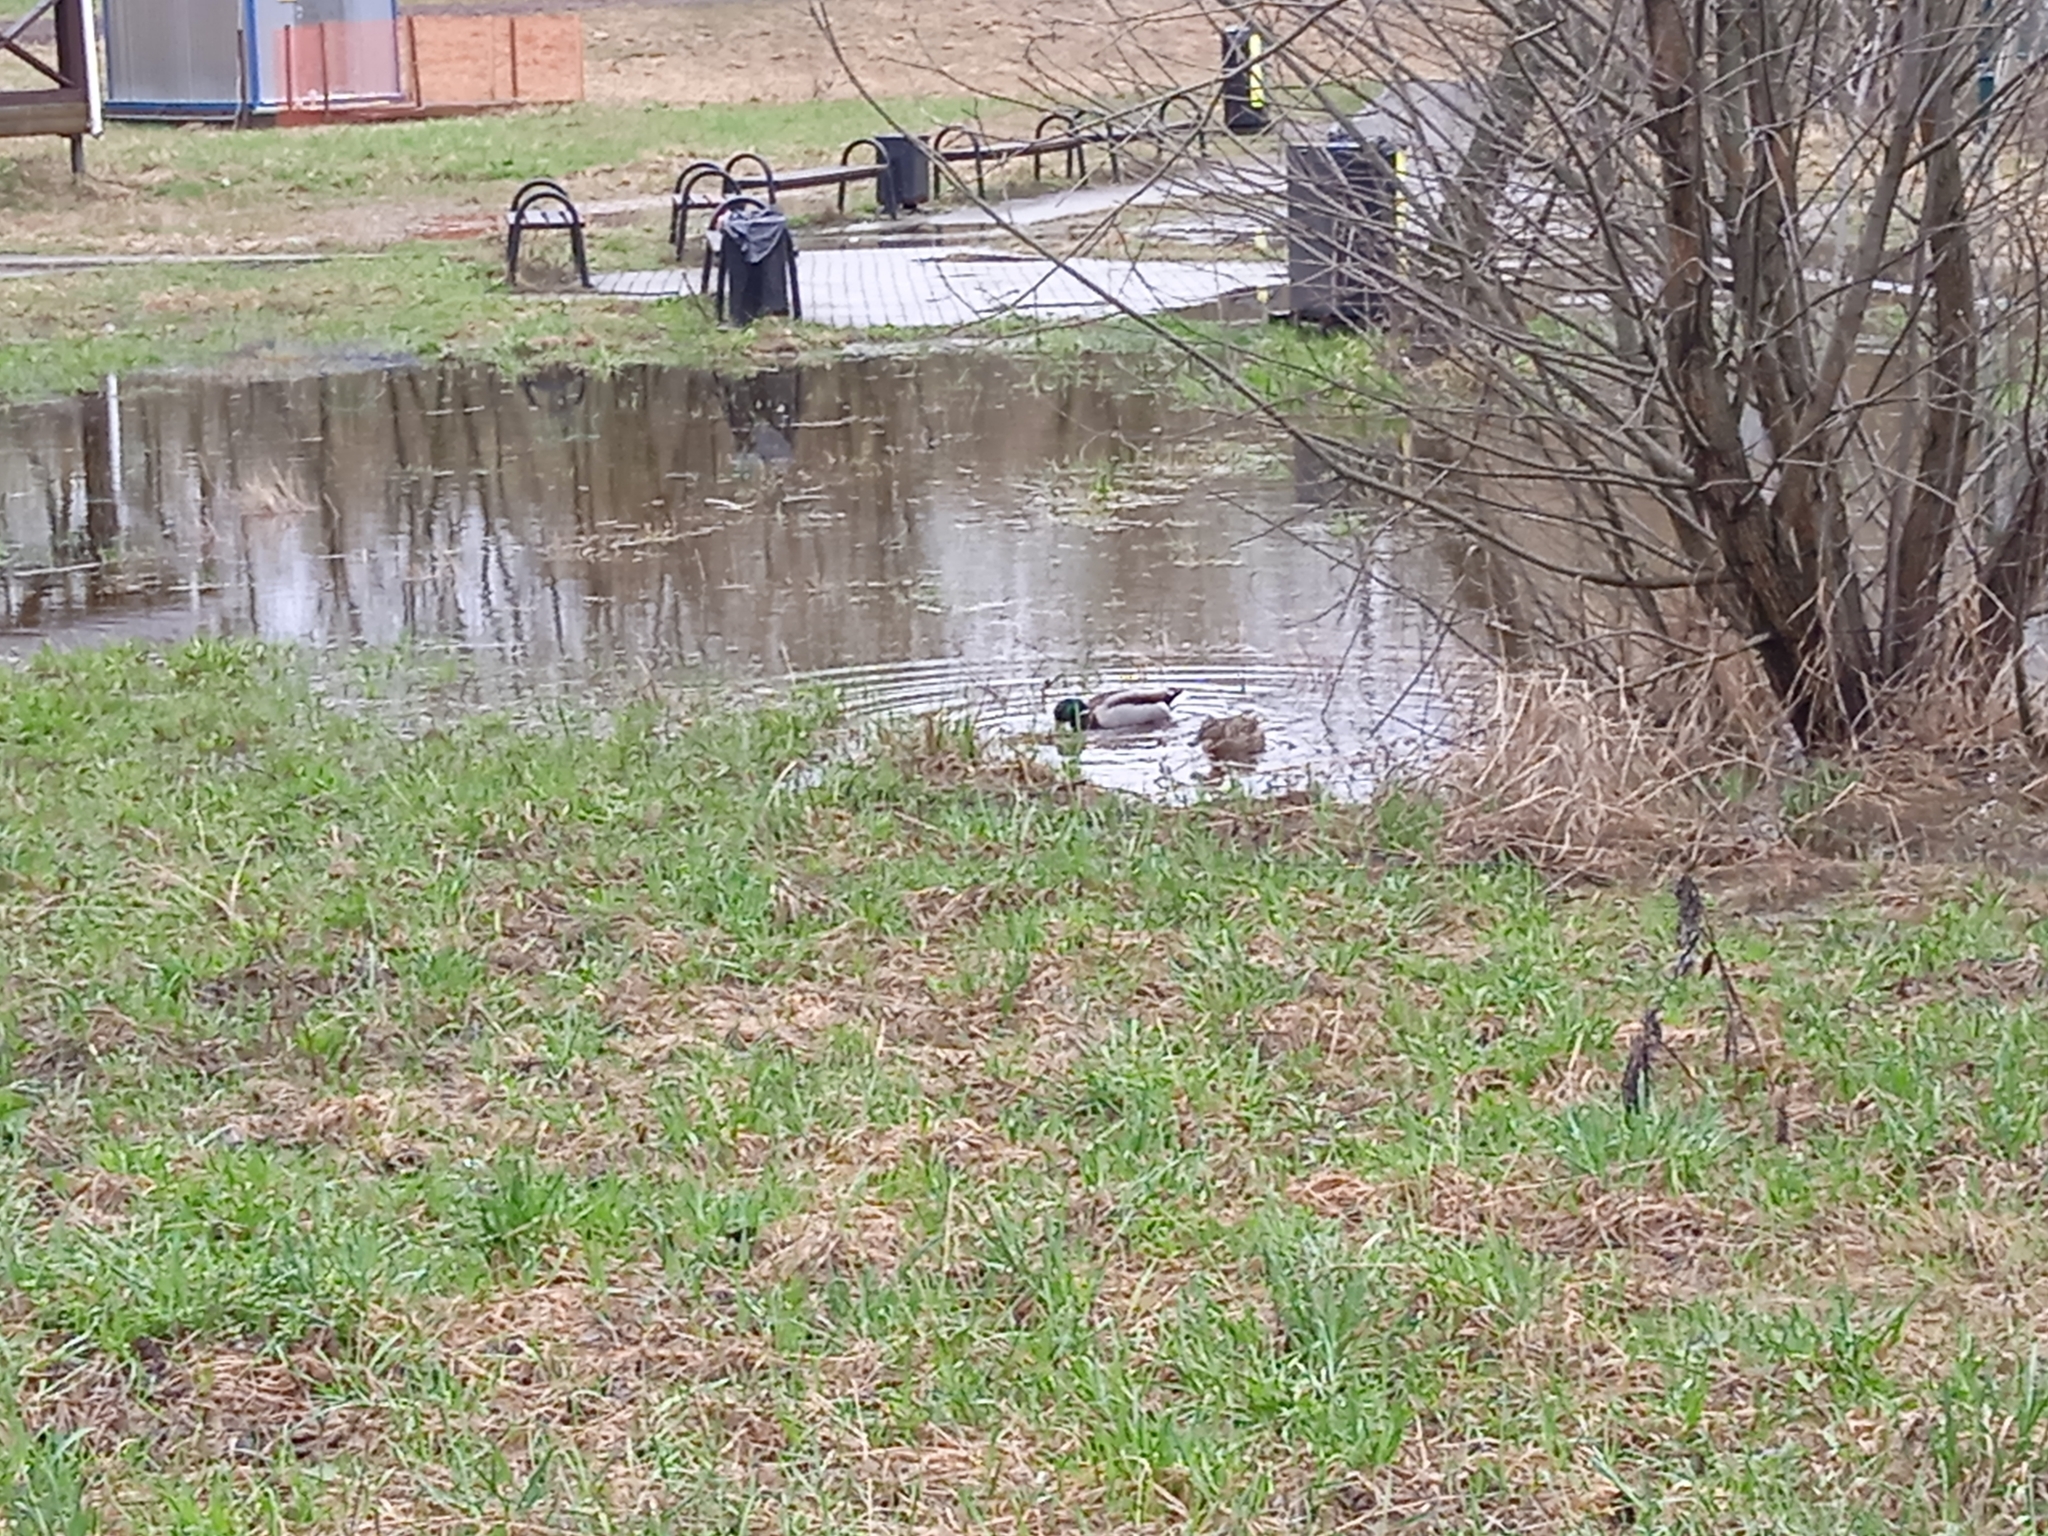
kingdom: Animalia
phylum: Chordata
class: Aves
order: Anseriformes
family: Anatidae
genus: Anas
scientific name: Anas platyrhynchos
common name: Mallard
